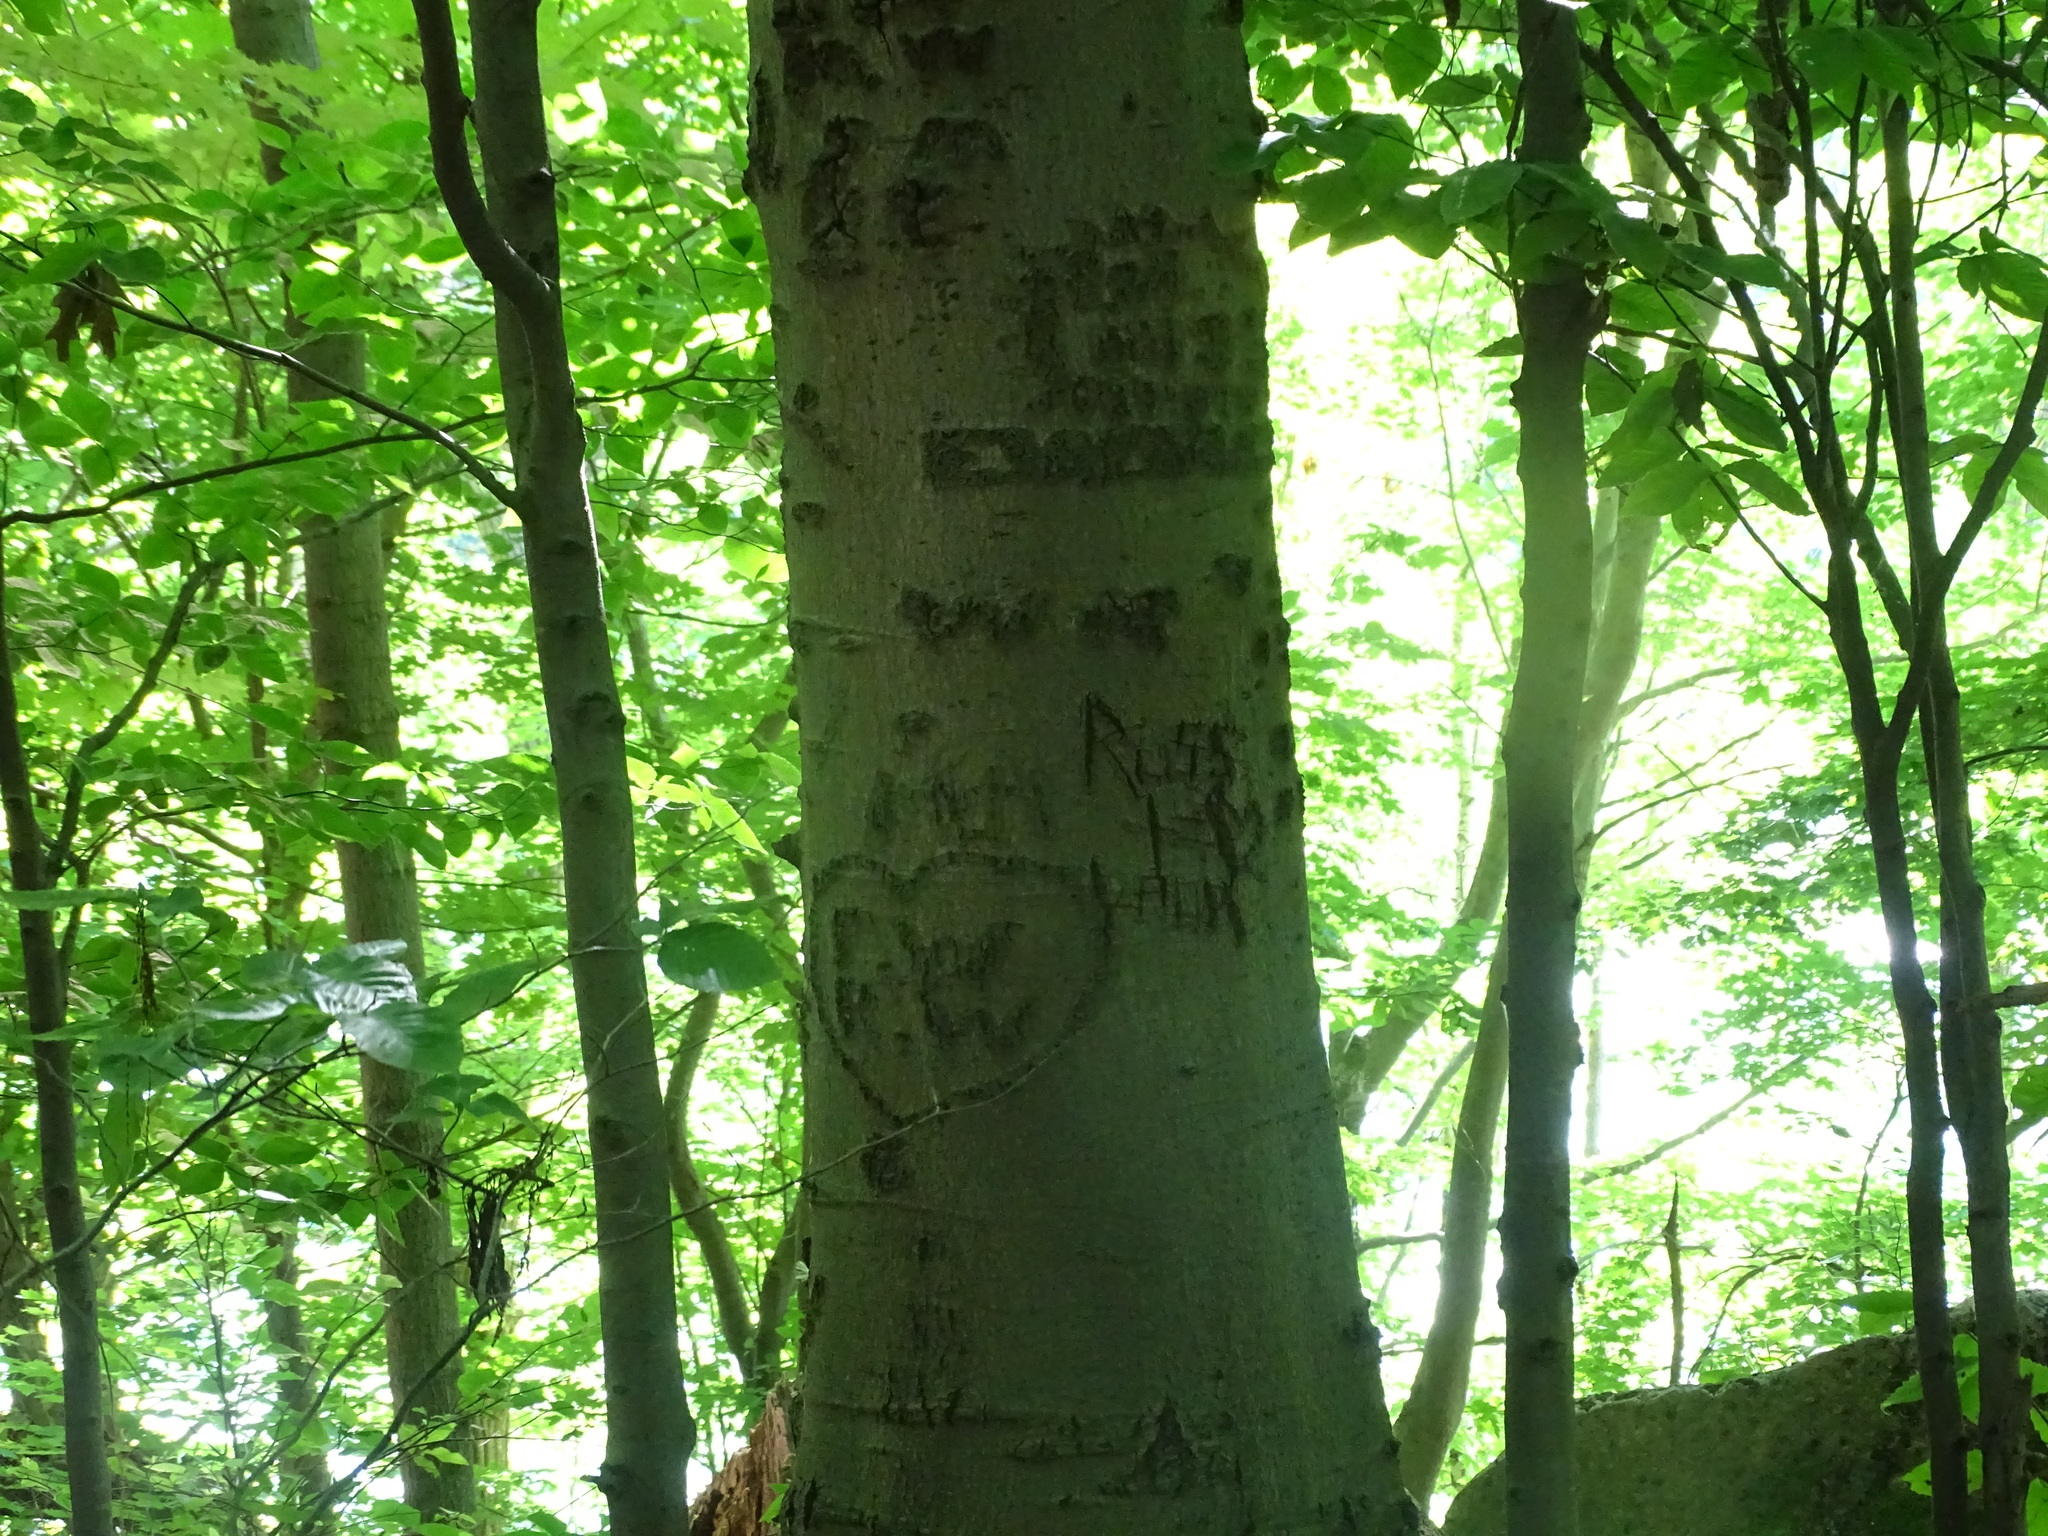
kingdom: Plantae
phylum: Tracheophyta
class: Magnoliopsida
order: Fagales
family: Fagaceae
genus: Fagus
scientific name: Fagus grandifolia
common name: American beech
